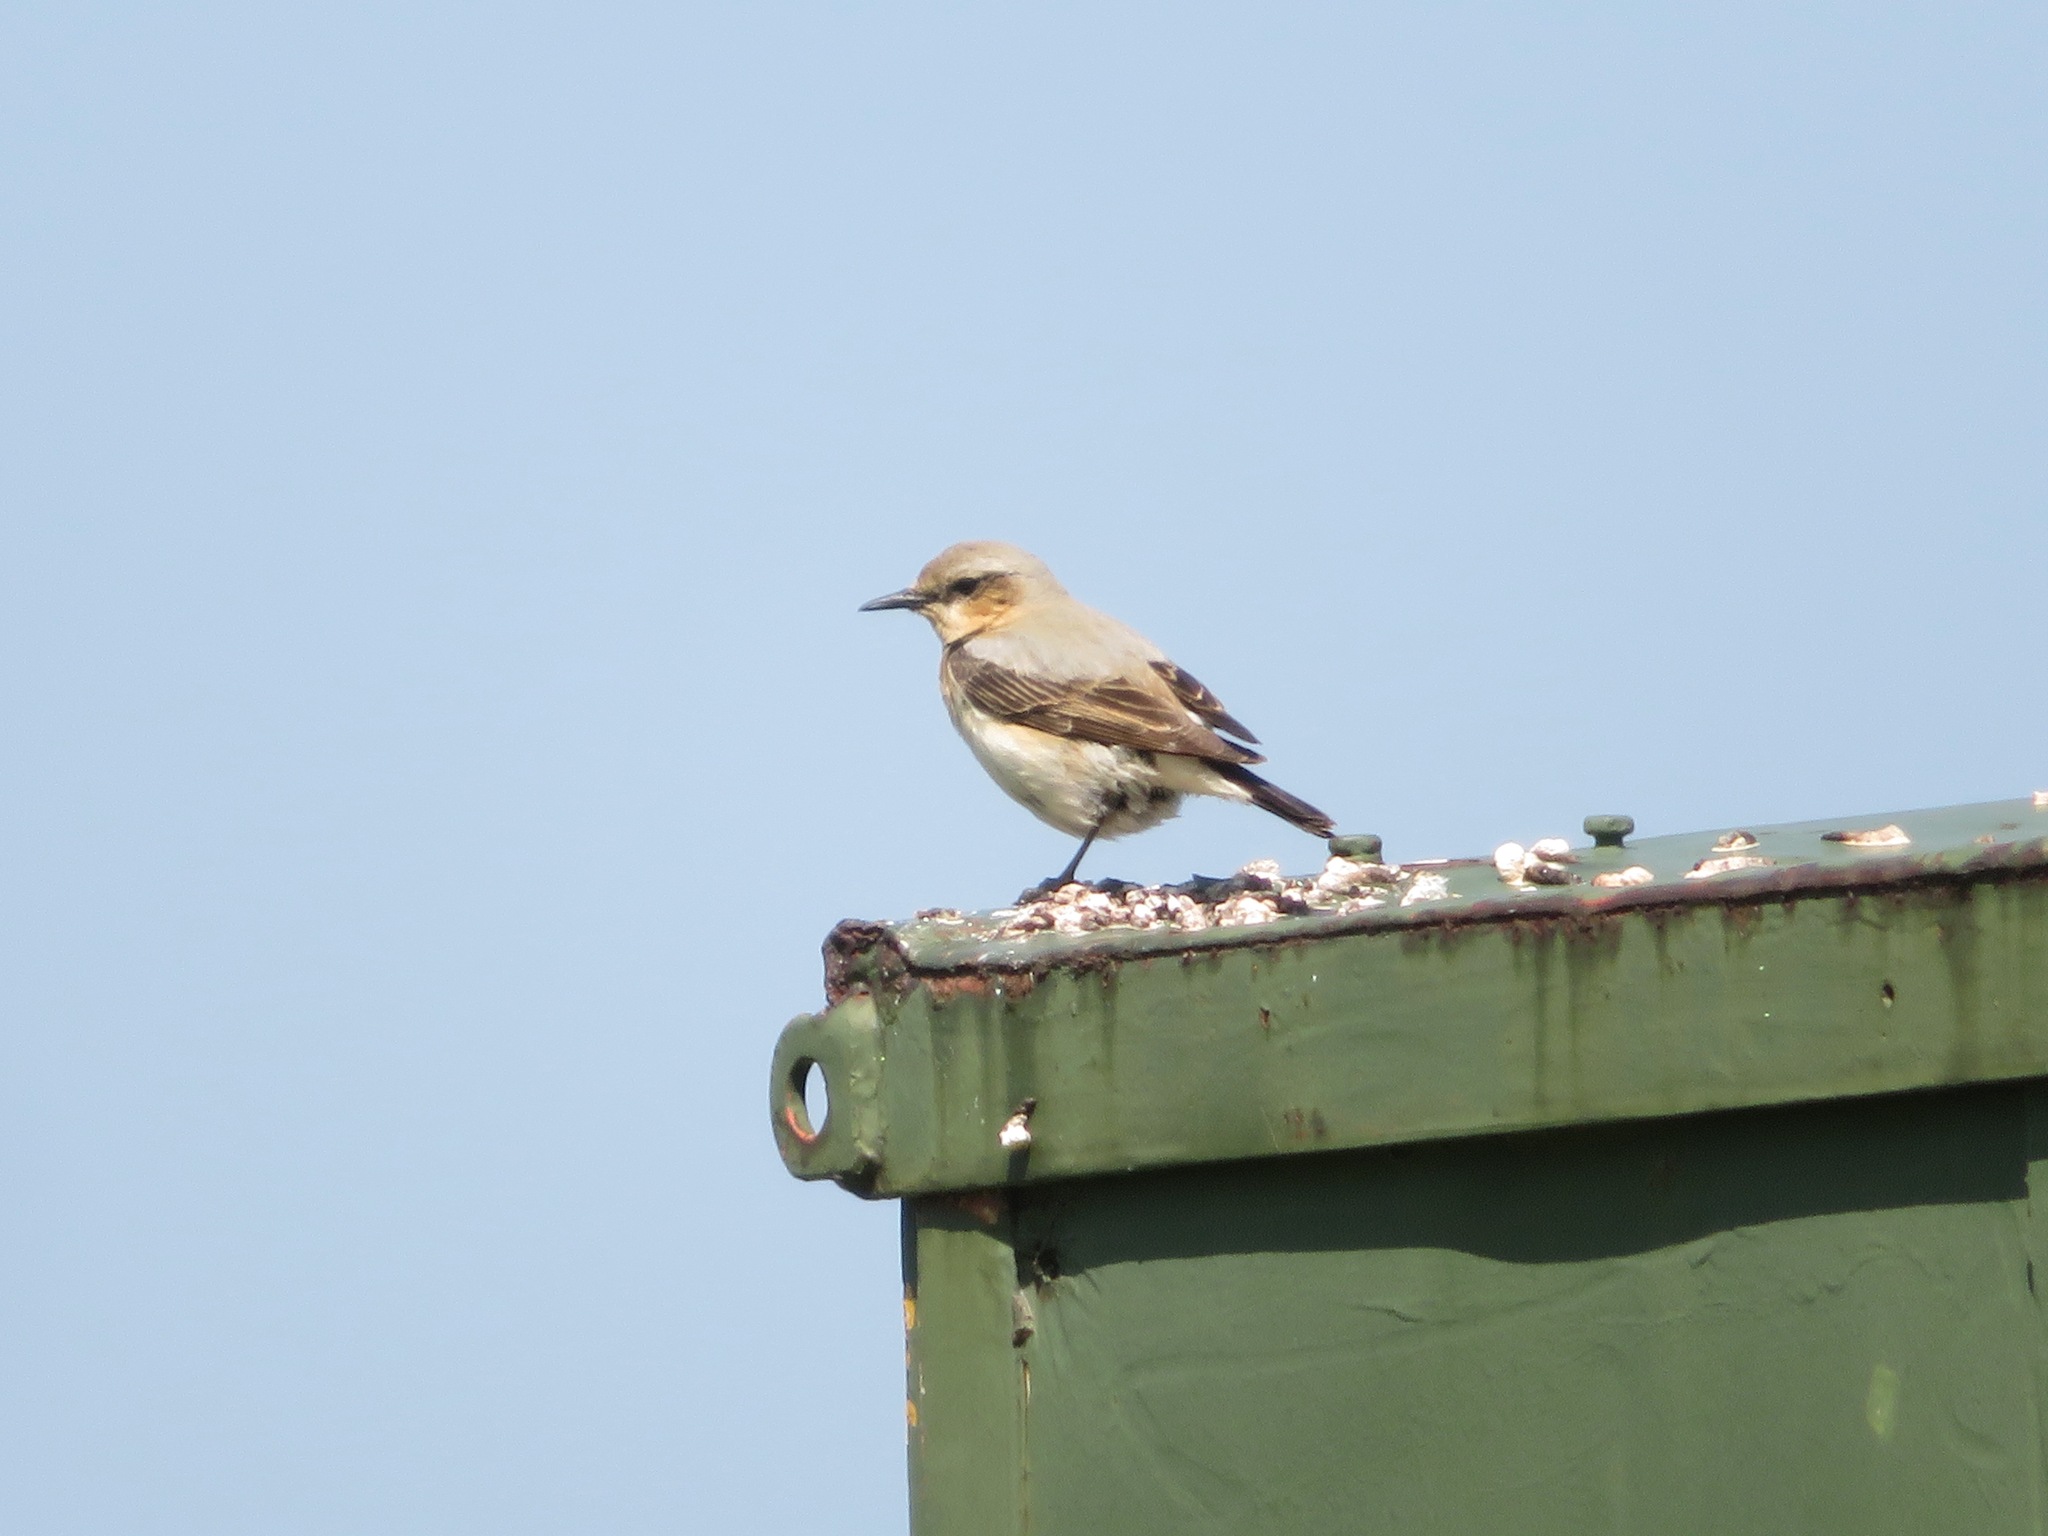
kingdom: Animalia
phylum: Chordata
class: Aves
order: Passeriformes
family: Muscicapidae
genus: Oenanthe
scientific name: Oenanthe oenanthe
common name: Northern wheatear
